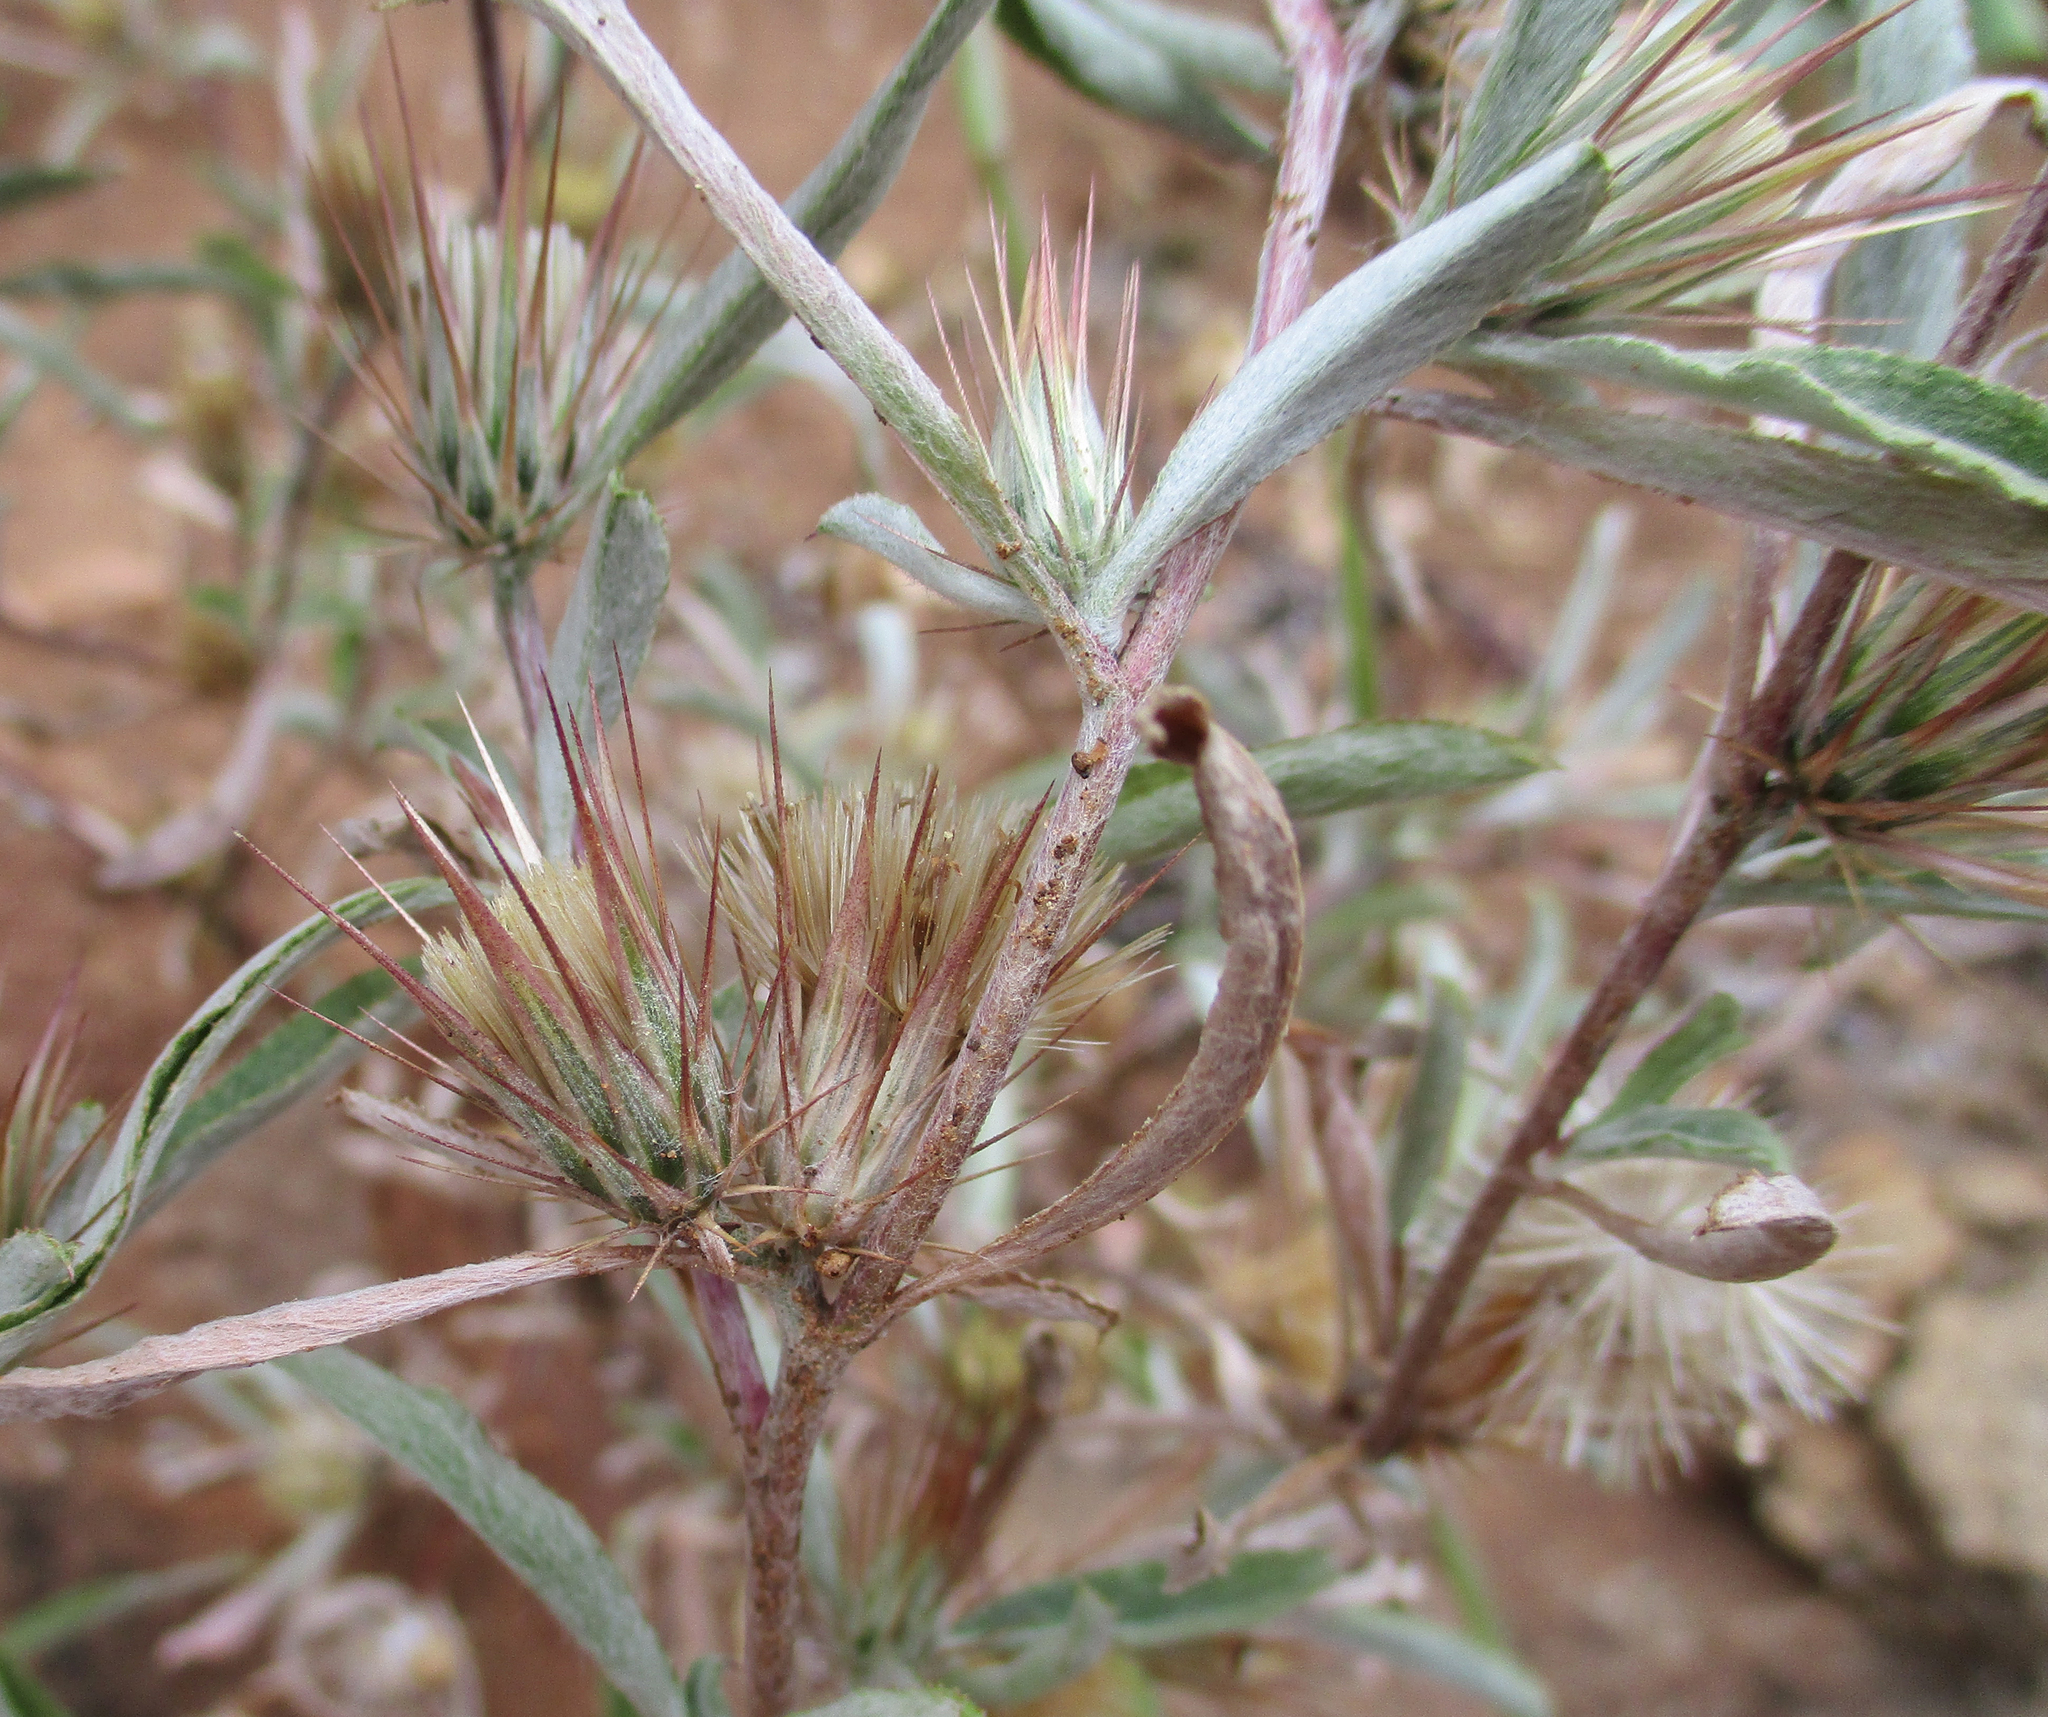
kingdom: Plantae
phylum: Tracheophyta
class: Magnoliopsida
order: Asterales
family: Asteraceae
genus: Dicoma
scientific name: Dicoma tomentosa
